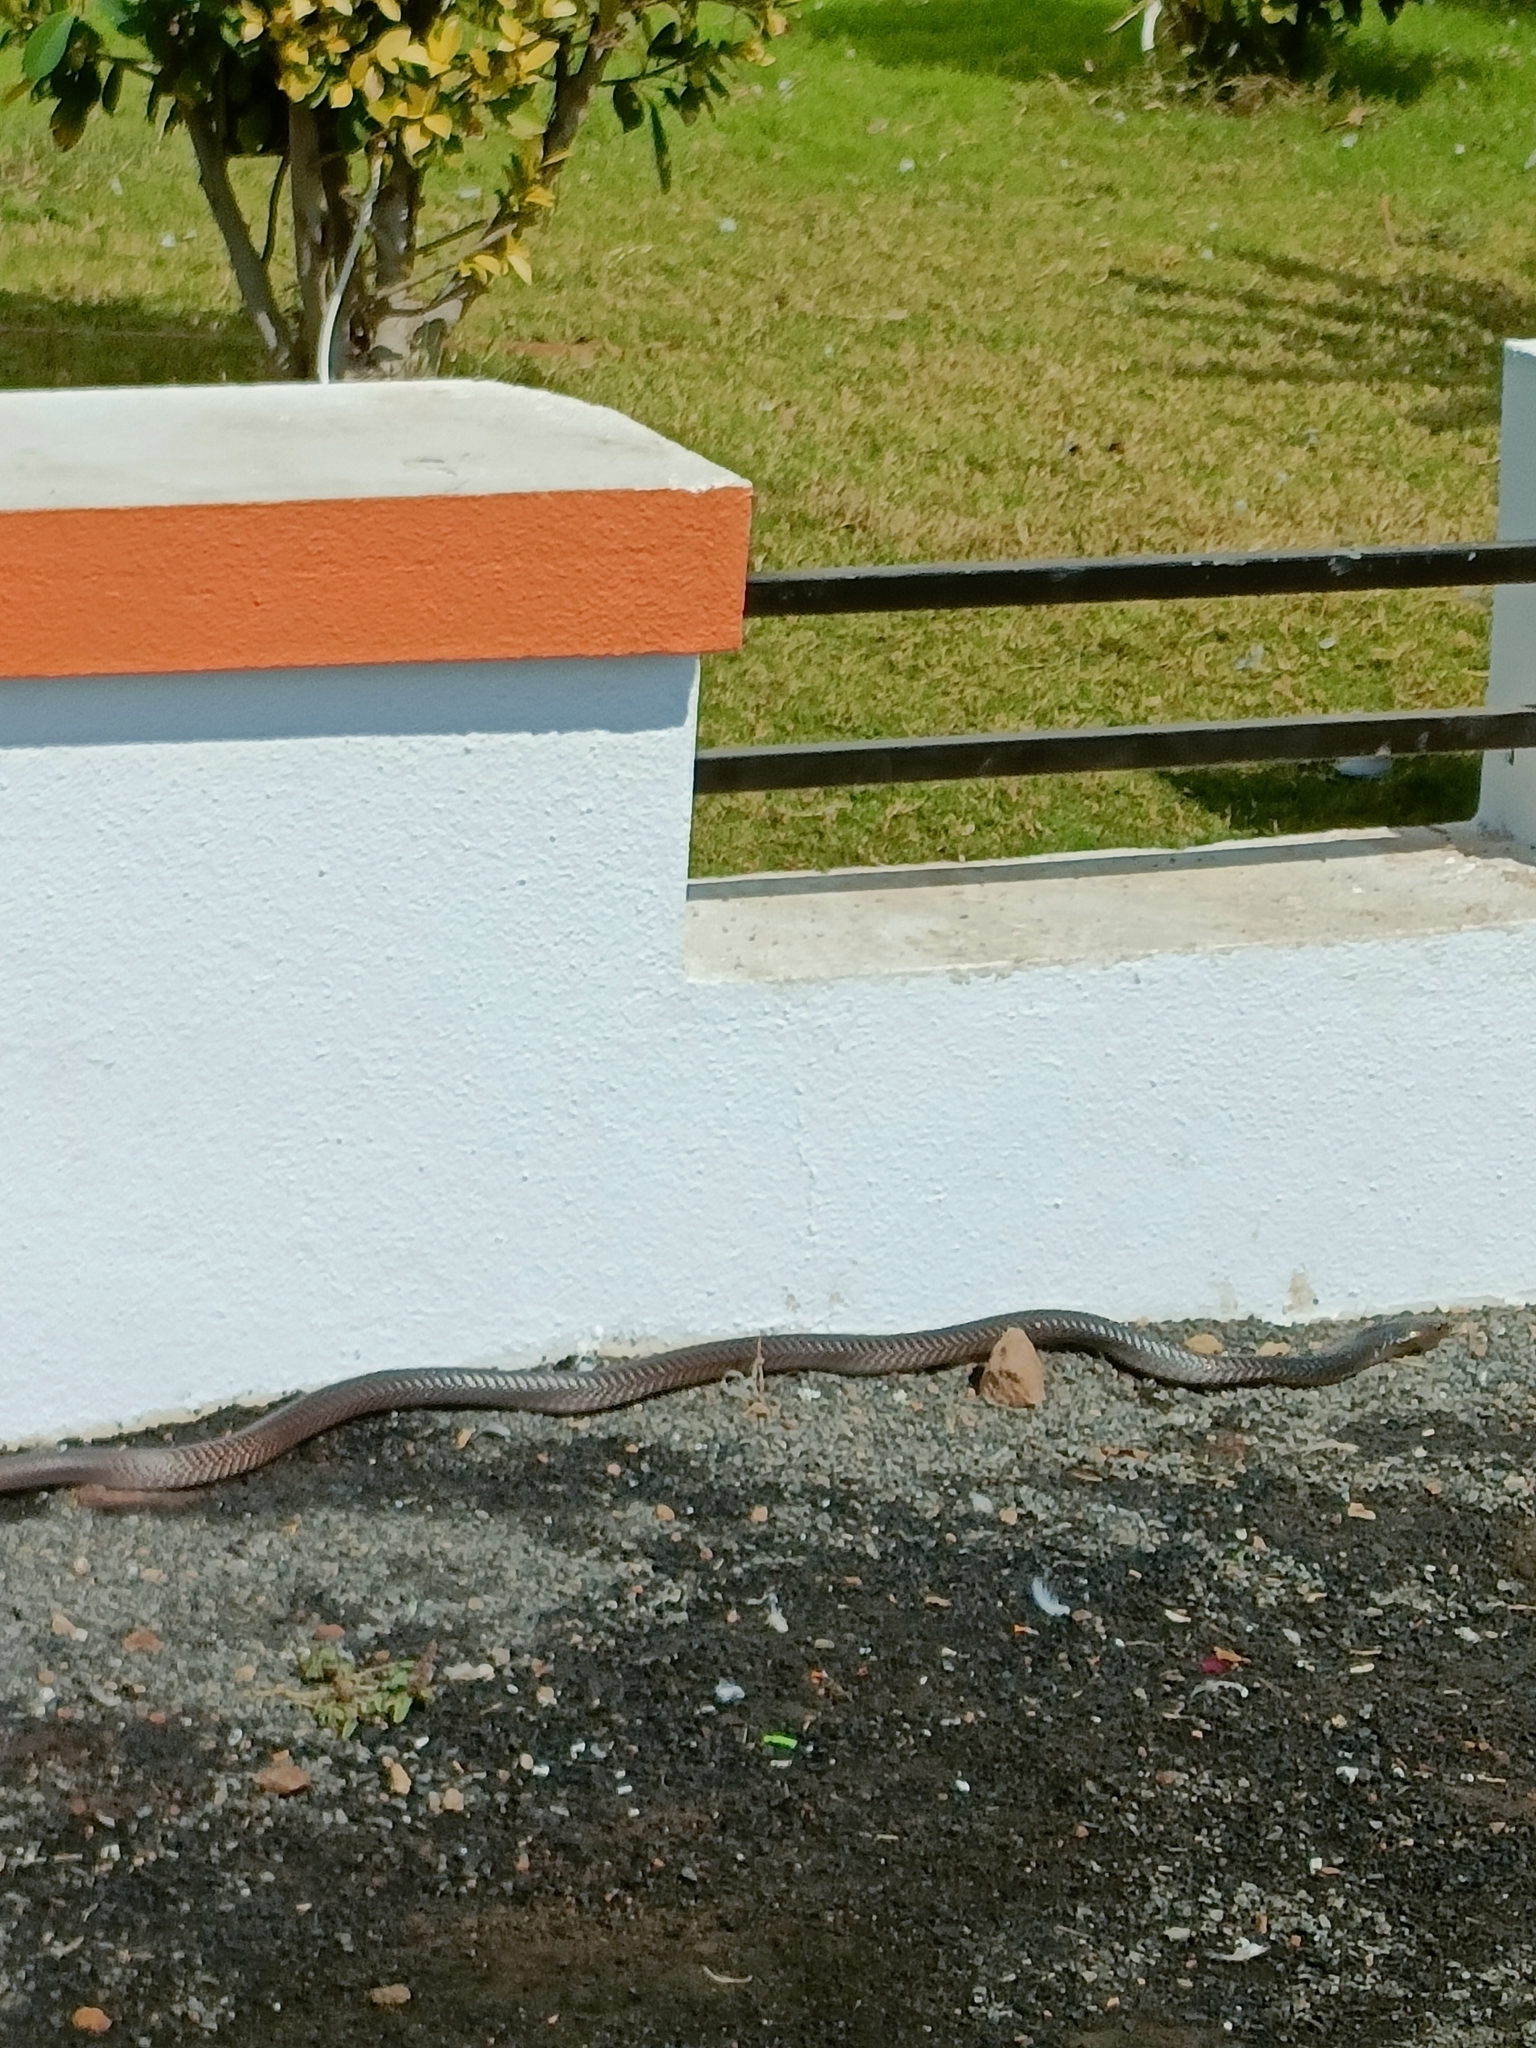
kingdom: Animalia
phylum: Chordata
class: Squamata
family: Elapidae
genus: Naja
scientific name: Naja naja
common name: Indian cobra
